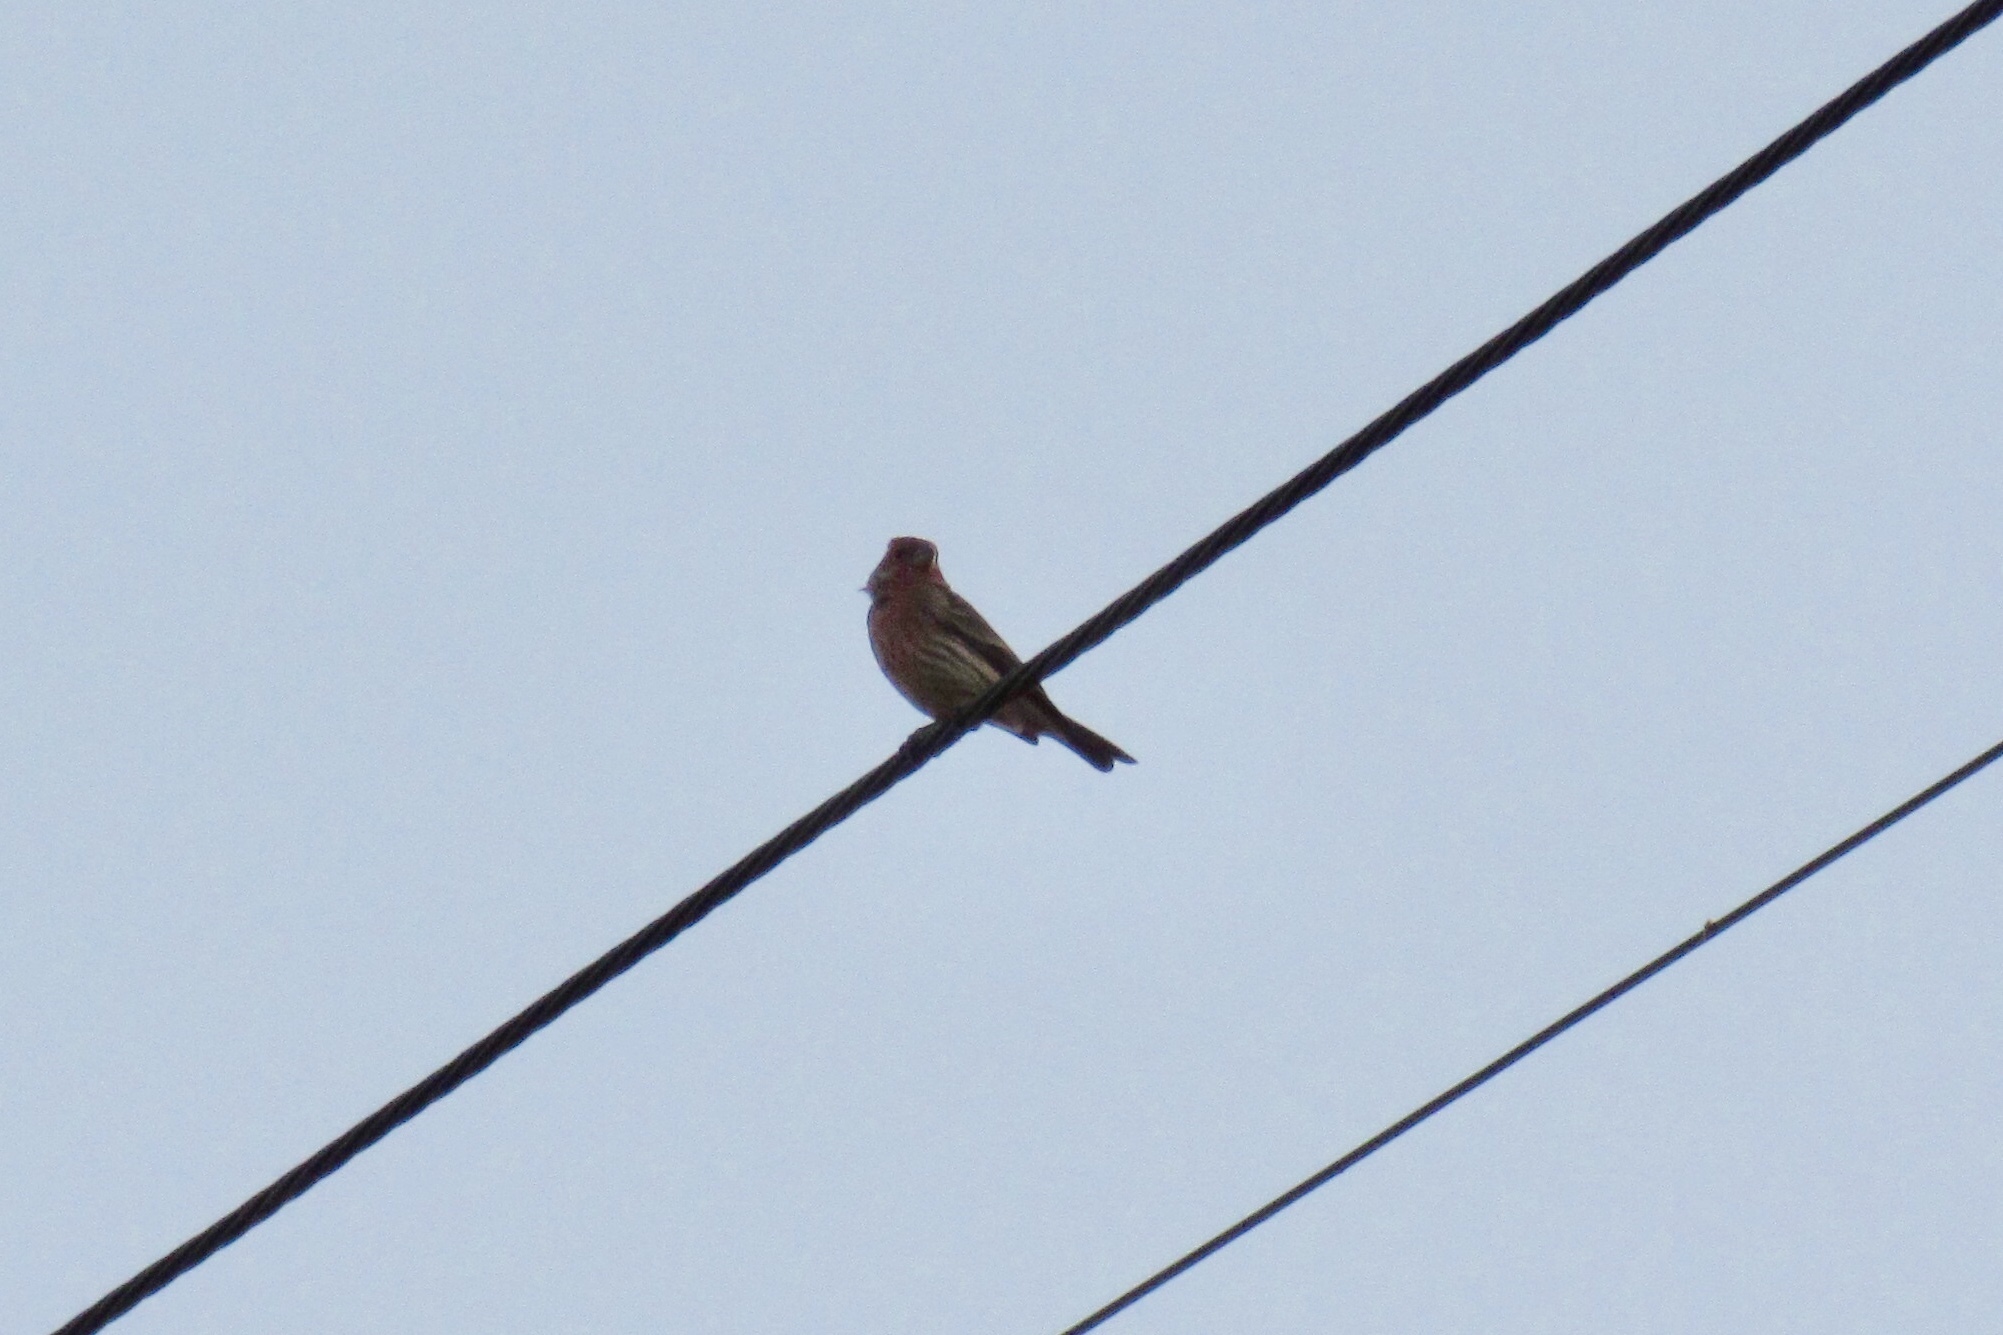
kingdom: Animalia
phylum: Chordata
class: Aves
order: Passeriformes
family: Fringillidae
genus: Haemorhous
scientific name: Haemorhous mexicanus
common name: House finch
